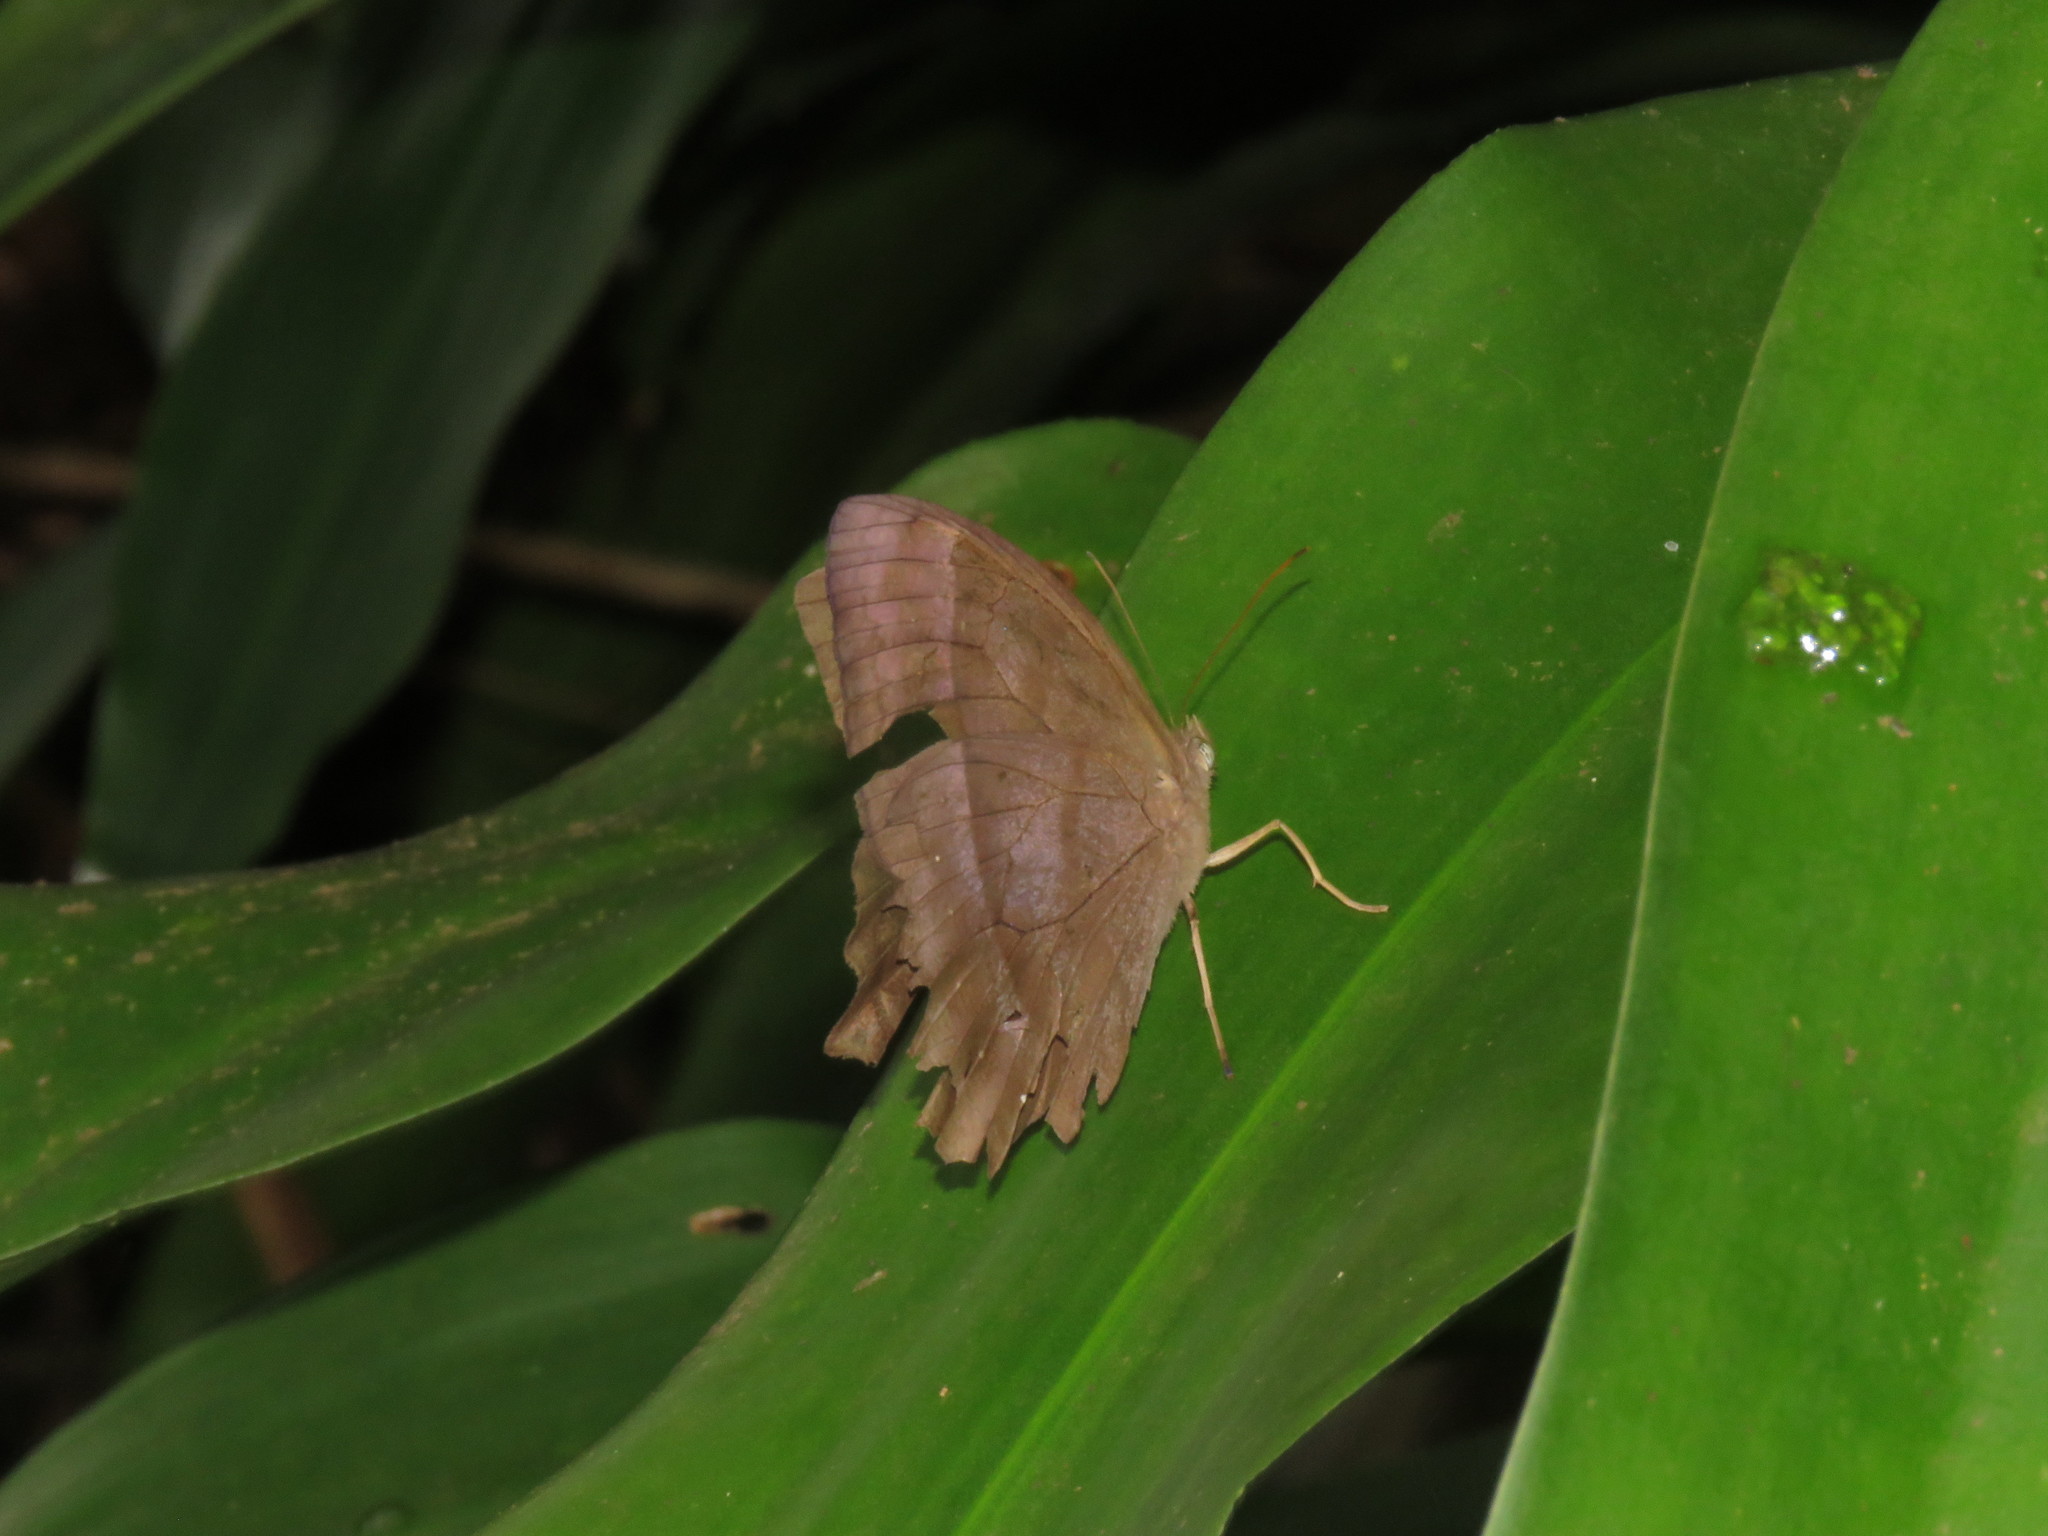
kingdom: Animalia
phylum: Arthropoda
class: Insecta
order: Lepidoptera
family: Nymphalidae
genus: Taygetis
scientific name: Taygetis thamyra
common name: Thamyra satyr
